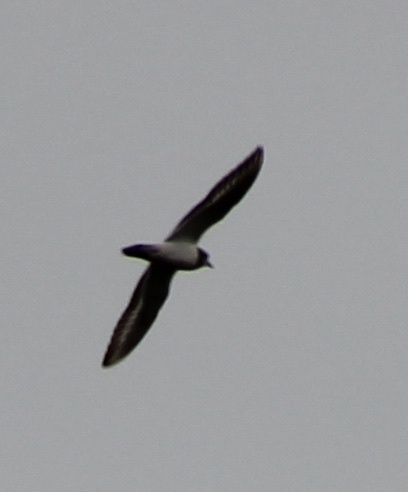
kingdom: Animalia
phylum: Chordata
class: Aves
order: Charadriiformes
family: Charadriidae
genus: Charadrius
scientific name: Charadrius semipalmatus
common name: Semipalmated plover
